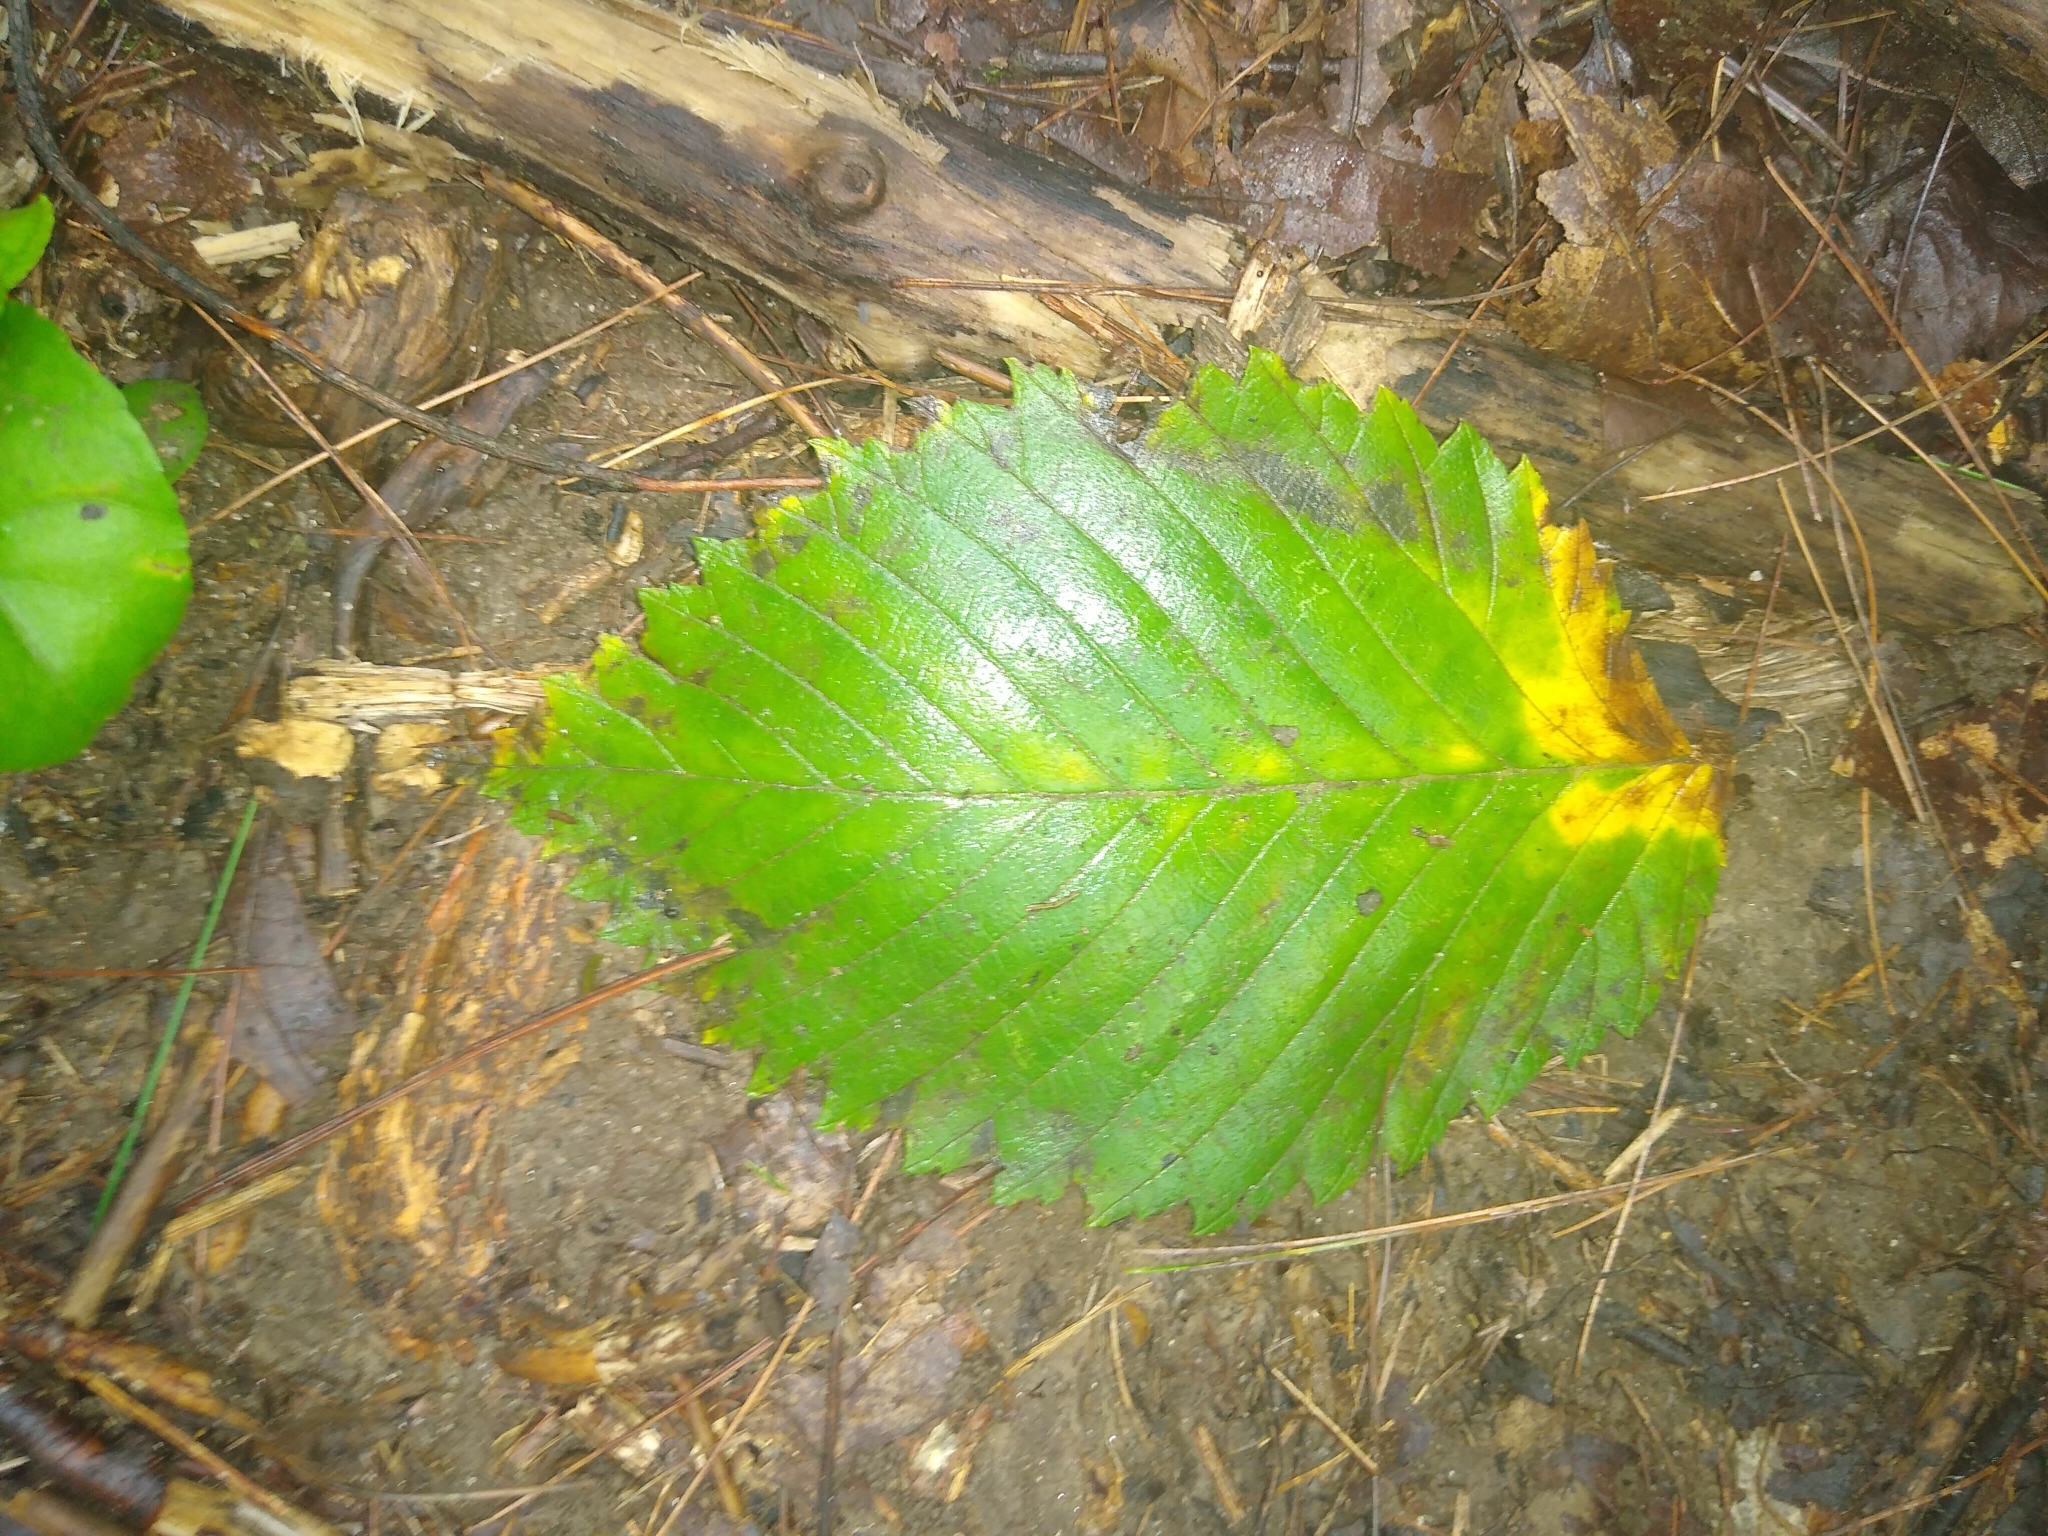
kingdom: Plantae
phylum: Tracheophyta
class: Magnoliopsida
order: Rosales
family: Ulmaceae
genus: Ulmus
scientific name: Ulmus rubra
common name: Slippery elm
